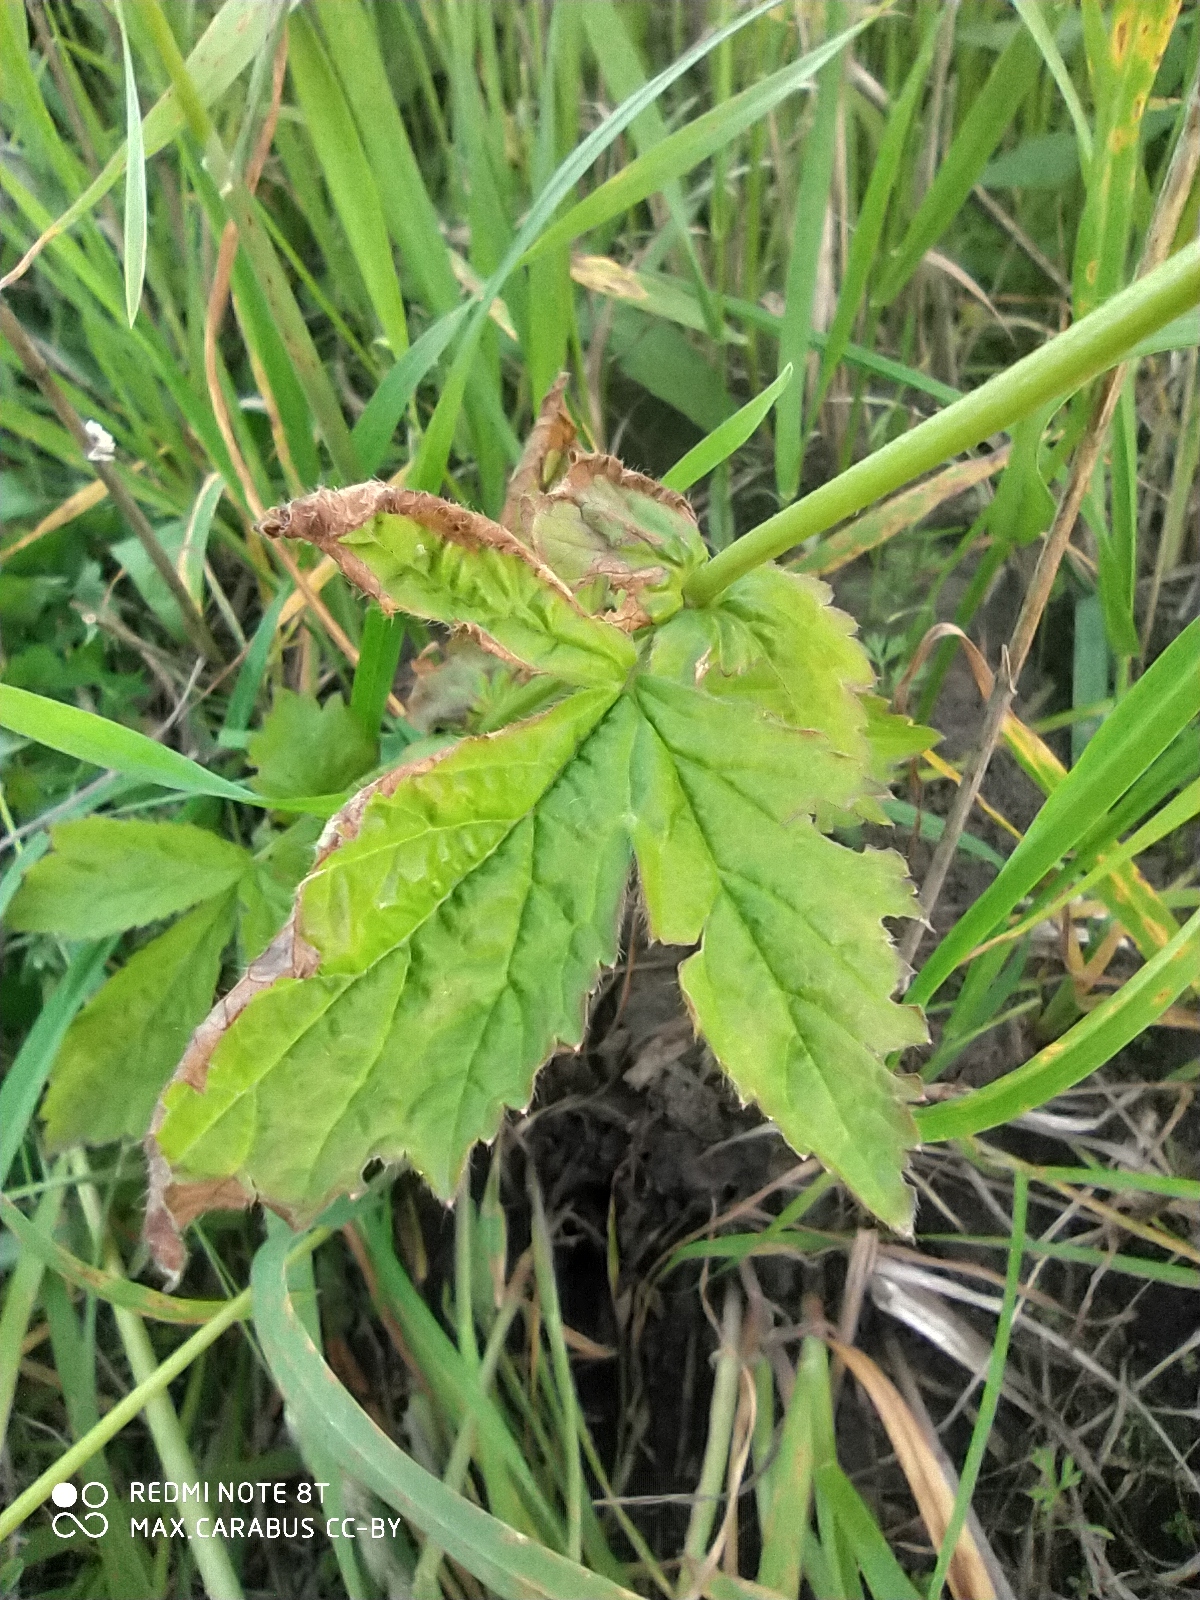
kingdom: Plantae
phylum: Tracheophyta
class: Magnoliopsida
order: Rosales
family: Rosaceae
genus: Geum
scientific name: Geum aleppicum
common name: Yellow avens
